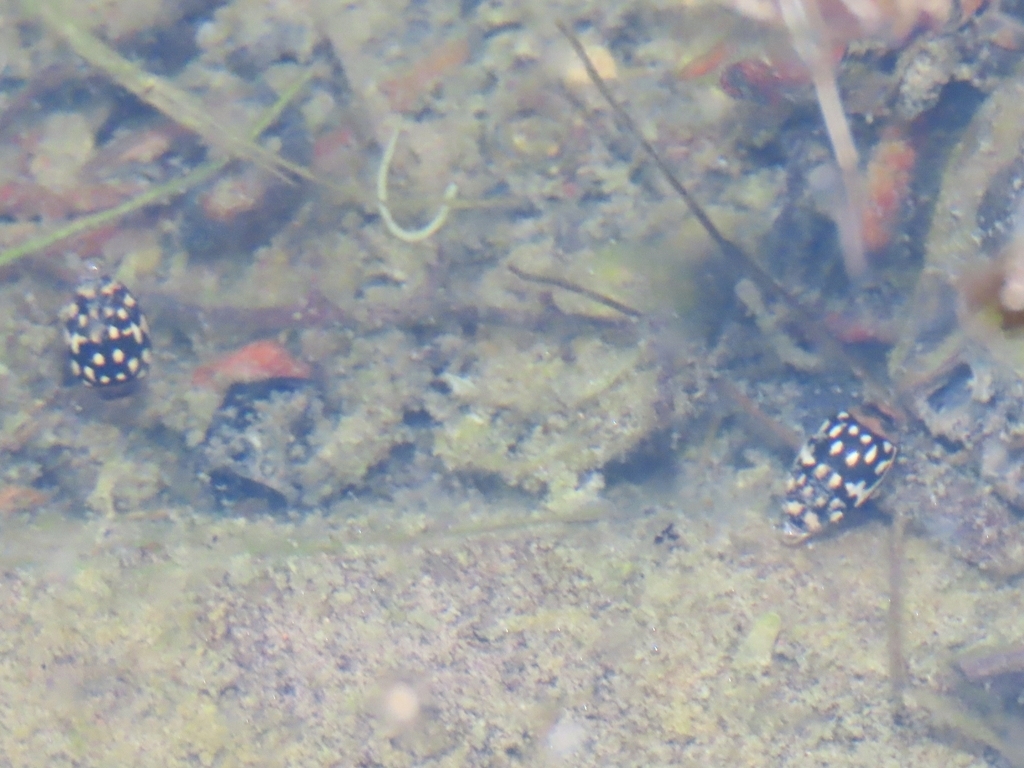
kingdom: Animalia
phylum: Arthropoda
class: Insecta
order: Coleoptera
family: Dytiscidae
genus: Laccophilus
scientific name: Laccophilus pictus
